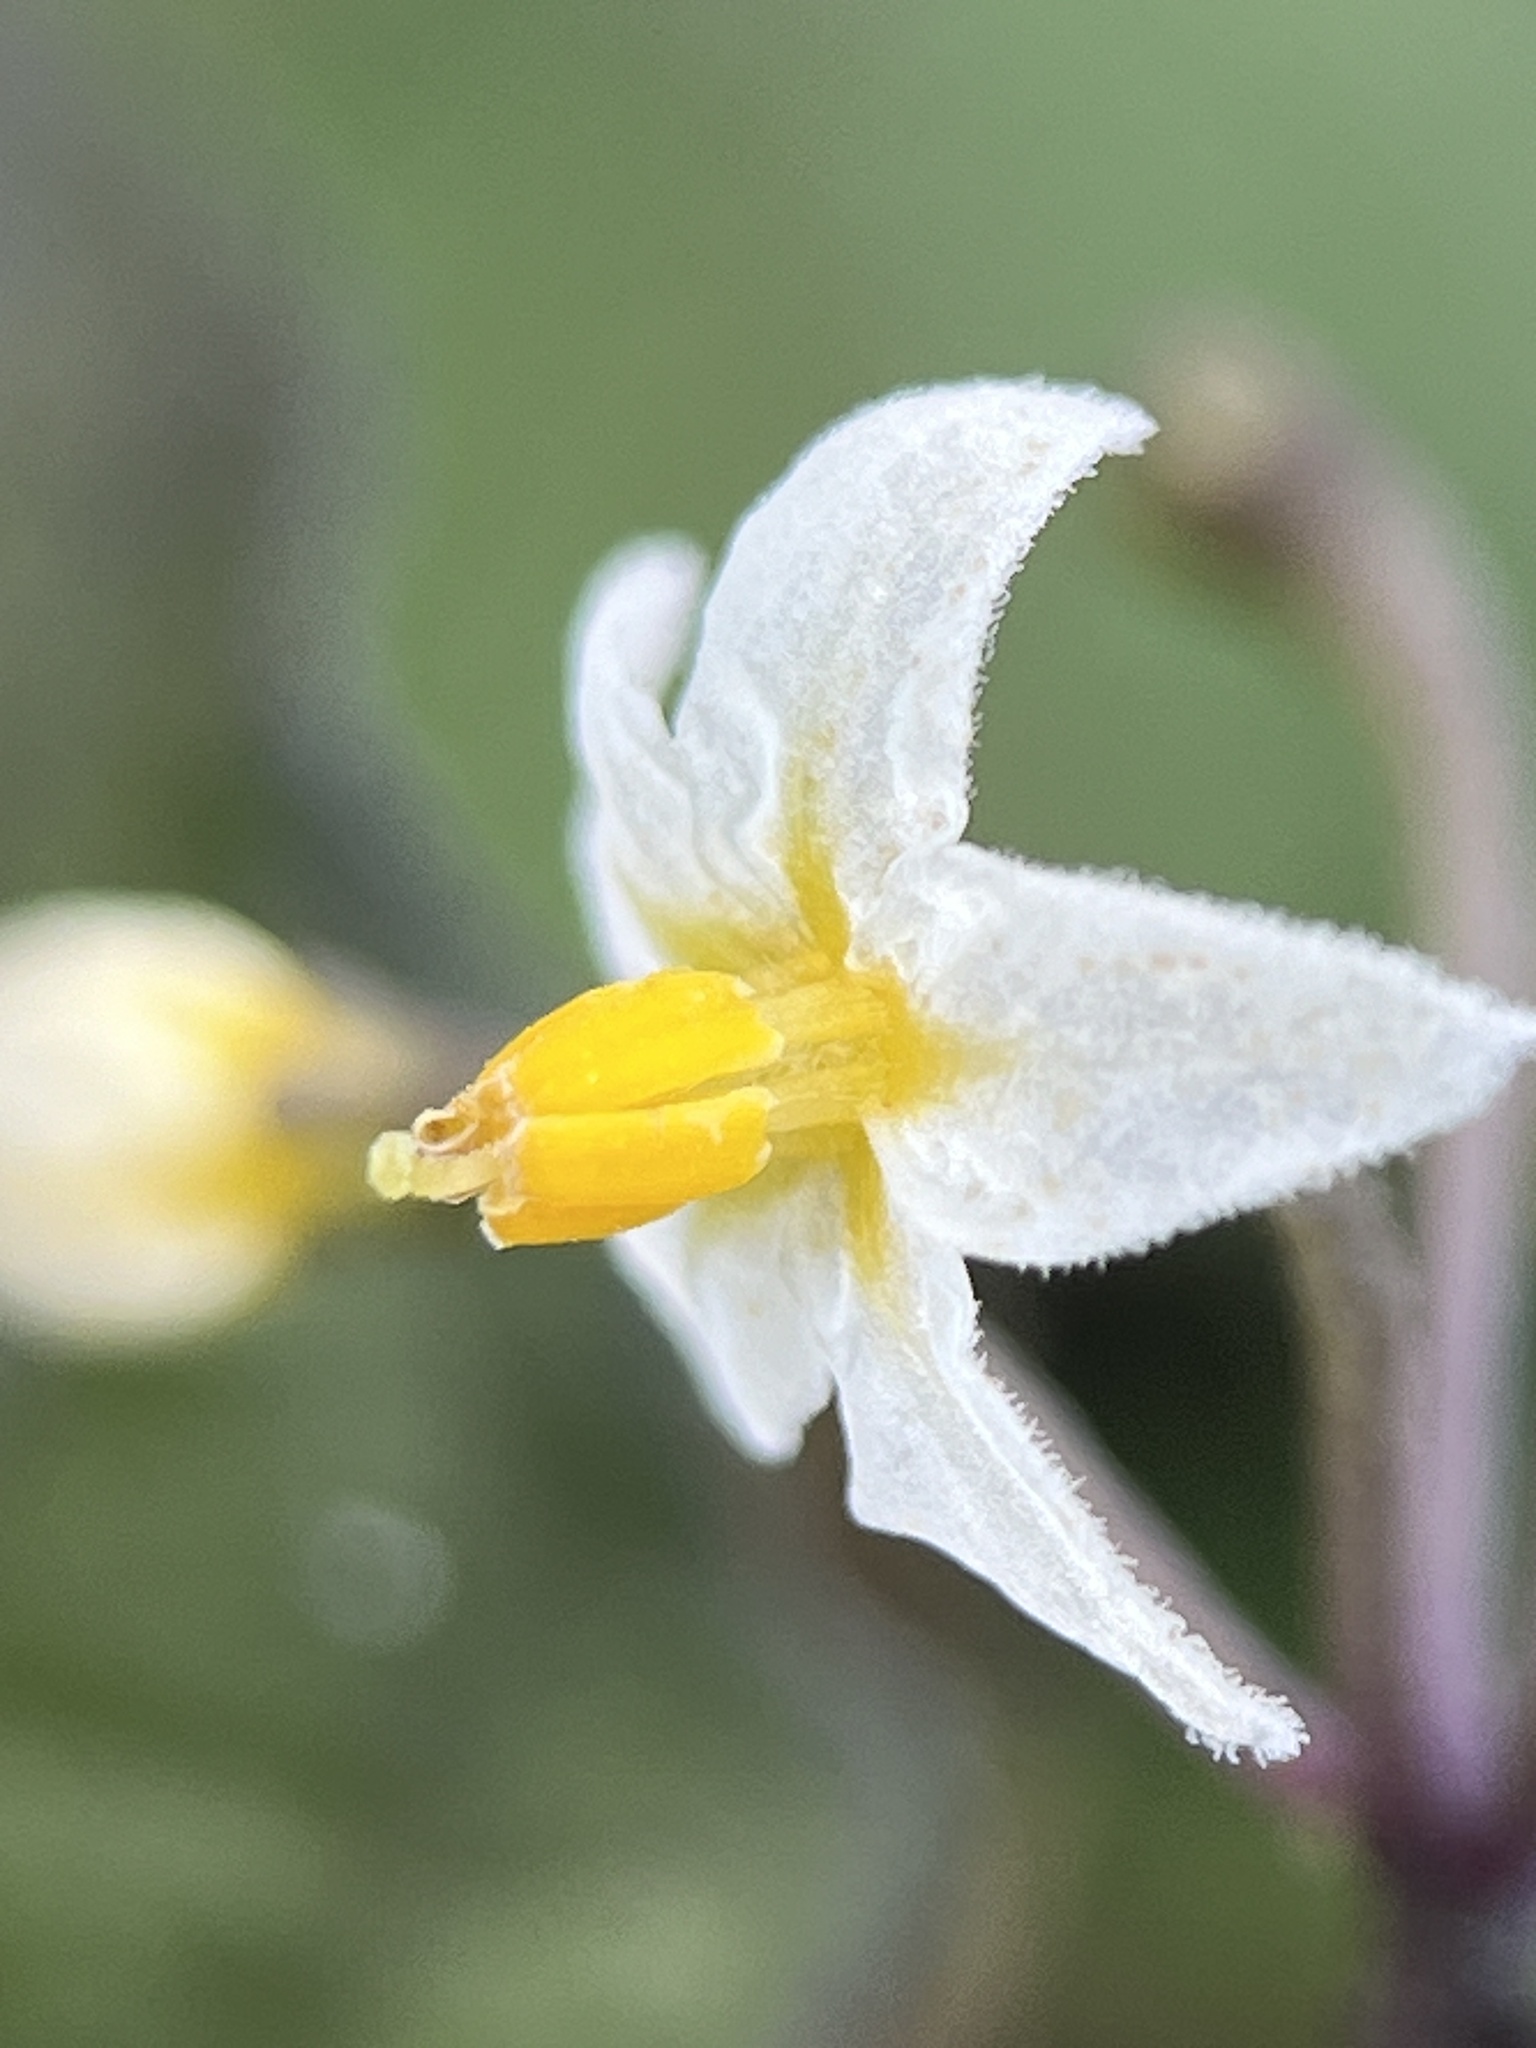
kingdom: Plantae
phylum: Tracheophyta
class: Magnoliopsida
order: Solanales
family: Solanaceae
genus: Solanum
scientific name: Solanum nigrum
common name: Black nightshade
